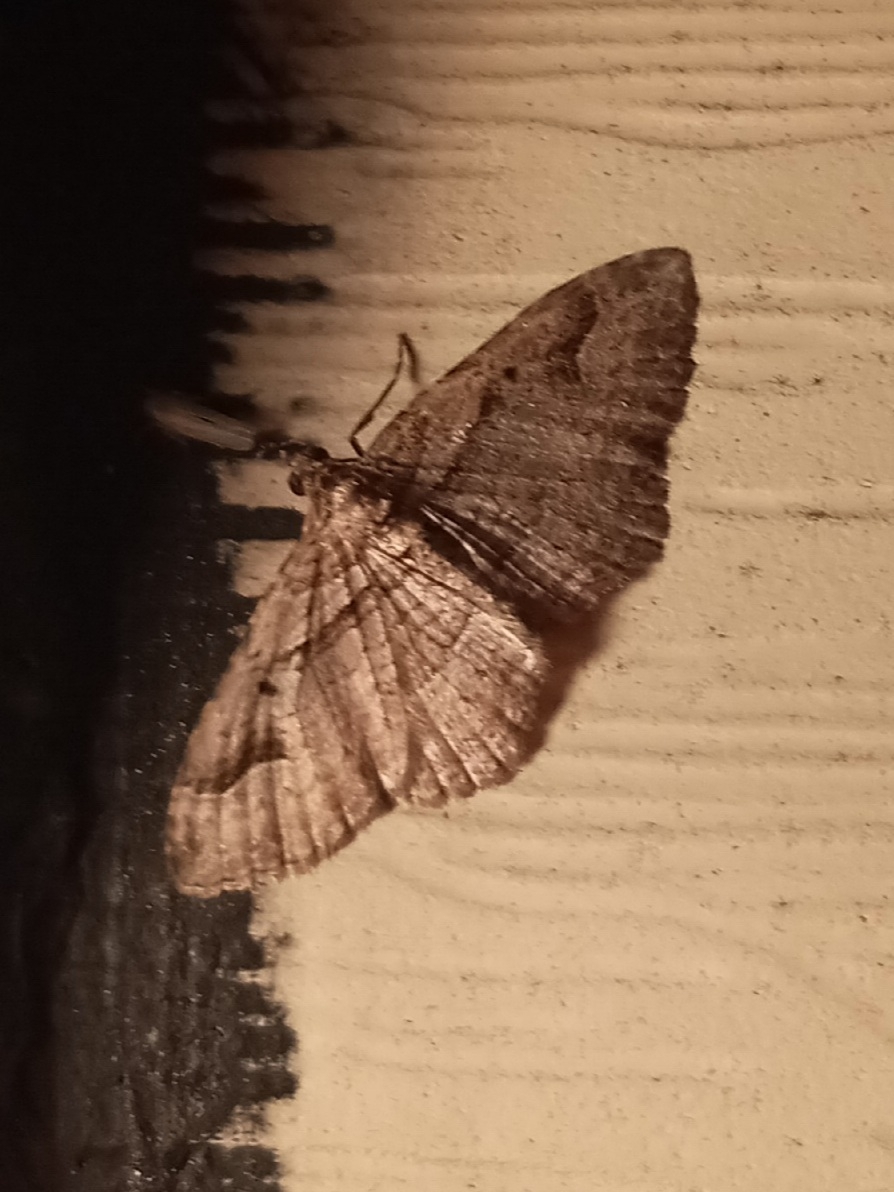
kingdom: Animalia
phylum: Arthropoda
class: Insecta
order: Lepidoptera
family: Geometridae
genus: Costaconvexa
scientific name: Costaconvexa centrostrigaria
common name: Bent-line carpet
